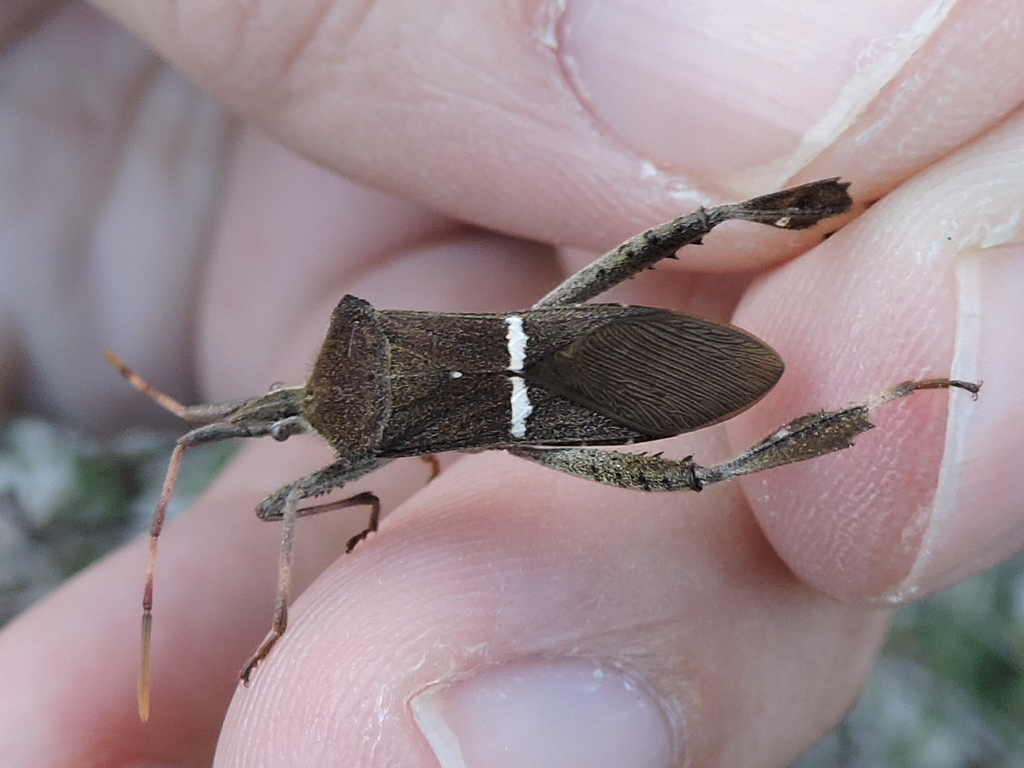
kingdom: Animalia
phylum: Arthropoda
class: Insecta
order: Hemiptera
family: Coreidae
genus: Leptoglossus
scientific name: Leptoglossus phyllopus
